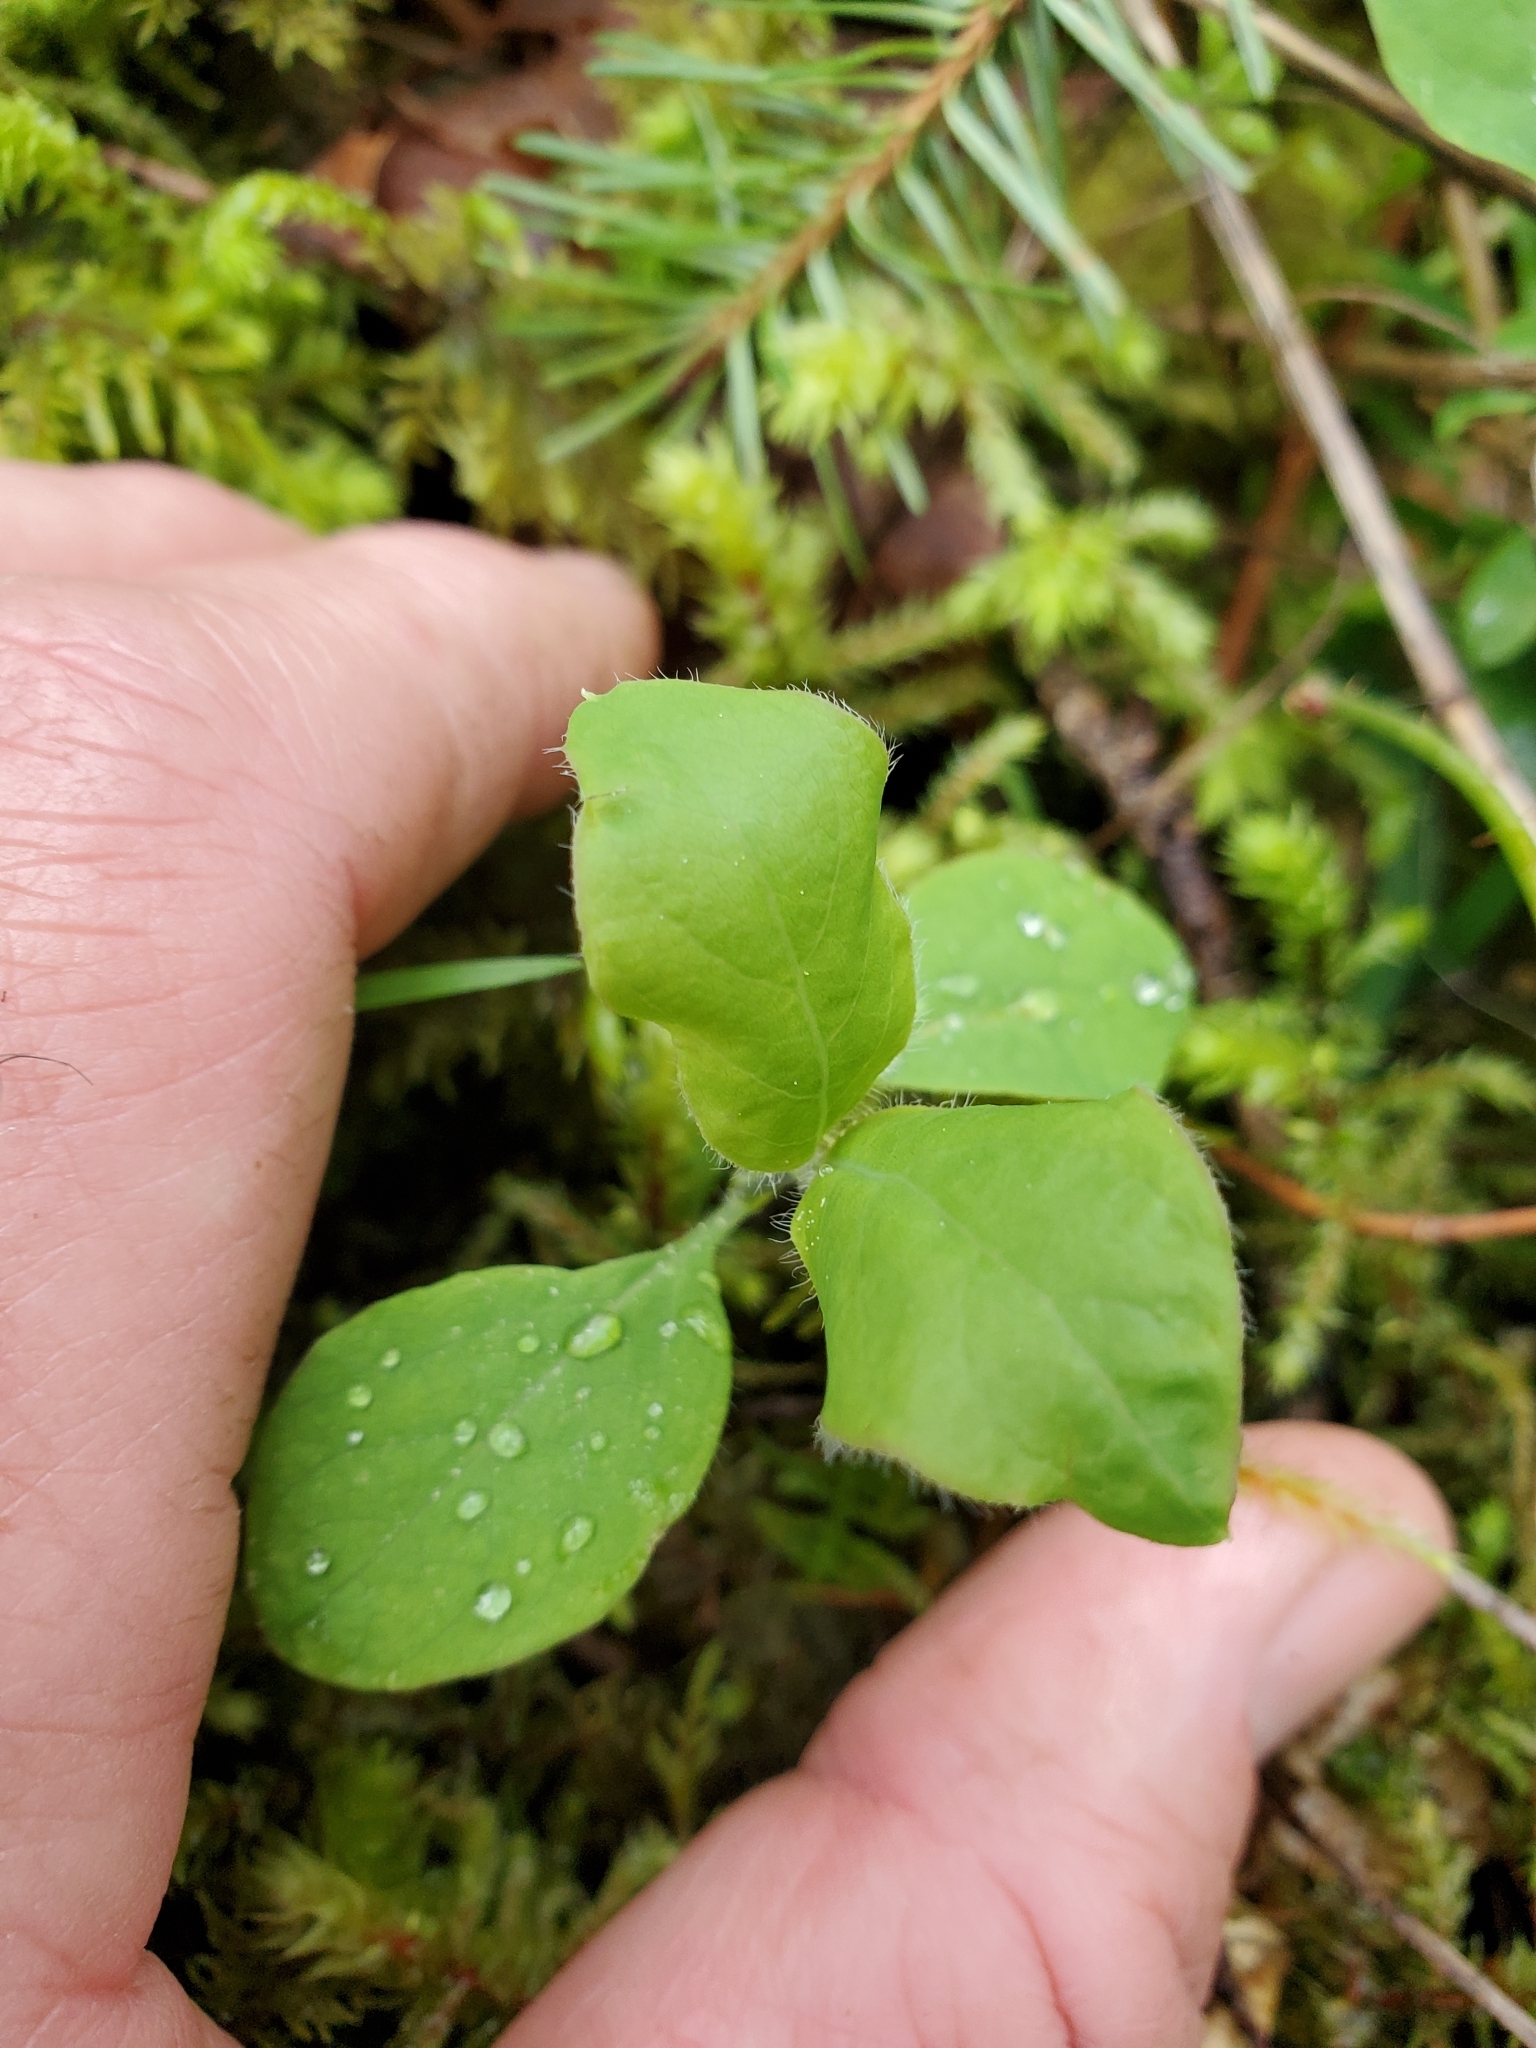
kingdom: Plantae
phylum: Tracheophyta
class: Magnoliopsida
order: Dipsacales
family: Caprifoliaceae
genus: Lonicera
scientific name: Lonicera ciliosa
